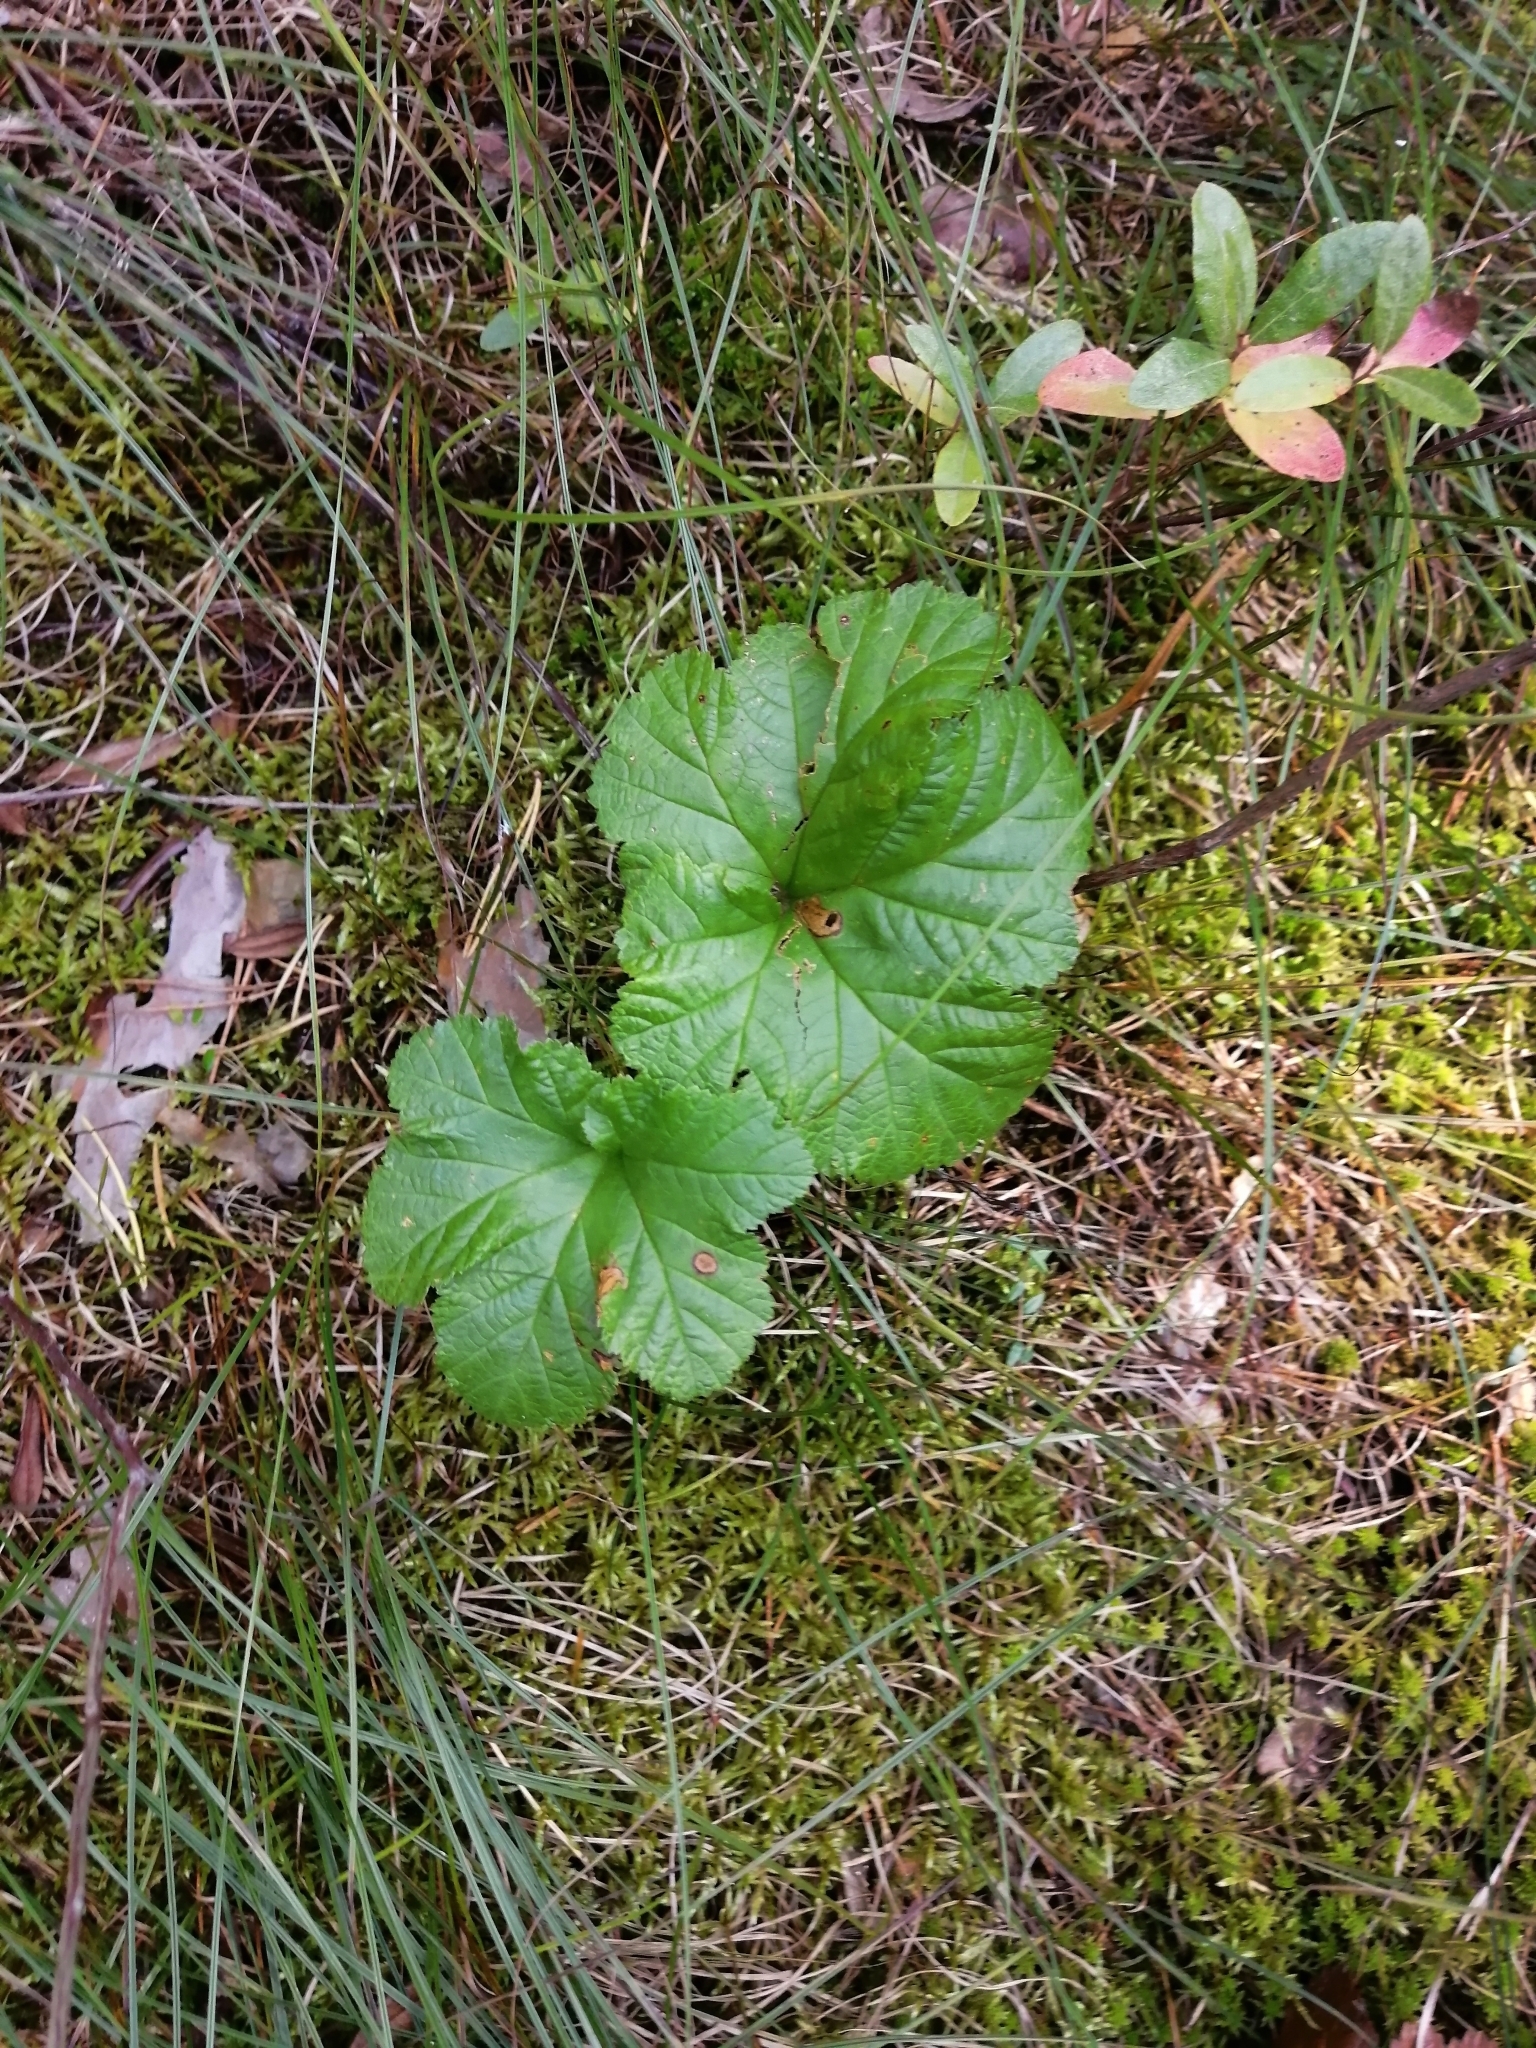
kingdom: Plantae
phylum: Tracheophyta
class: Magnoliopsida
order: Rosales
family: Rosaceae
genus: Rubus
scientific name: Rubus chamaemorus
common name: Cloudberry
